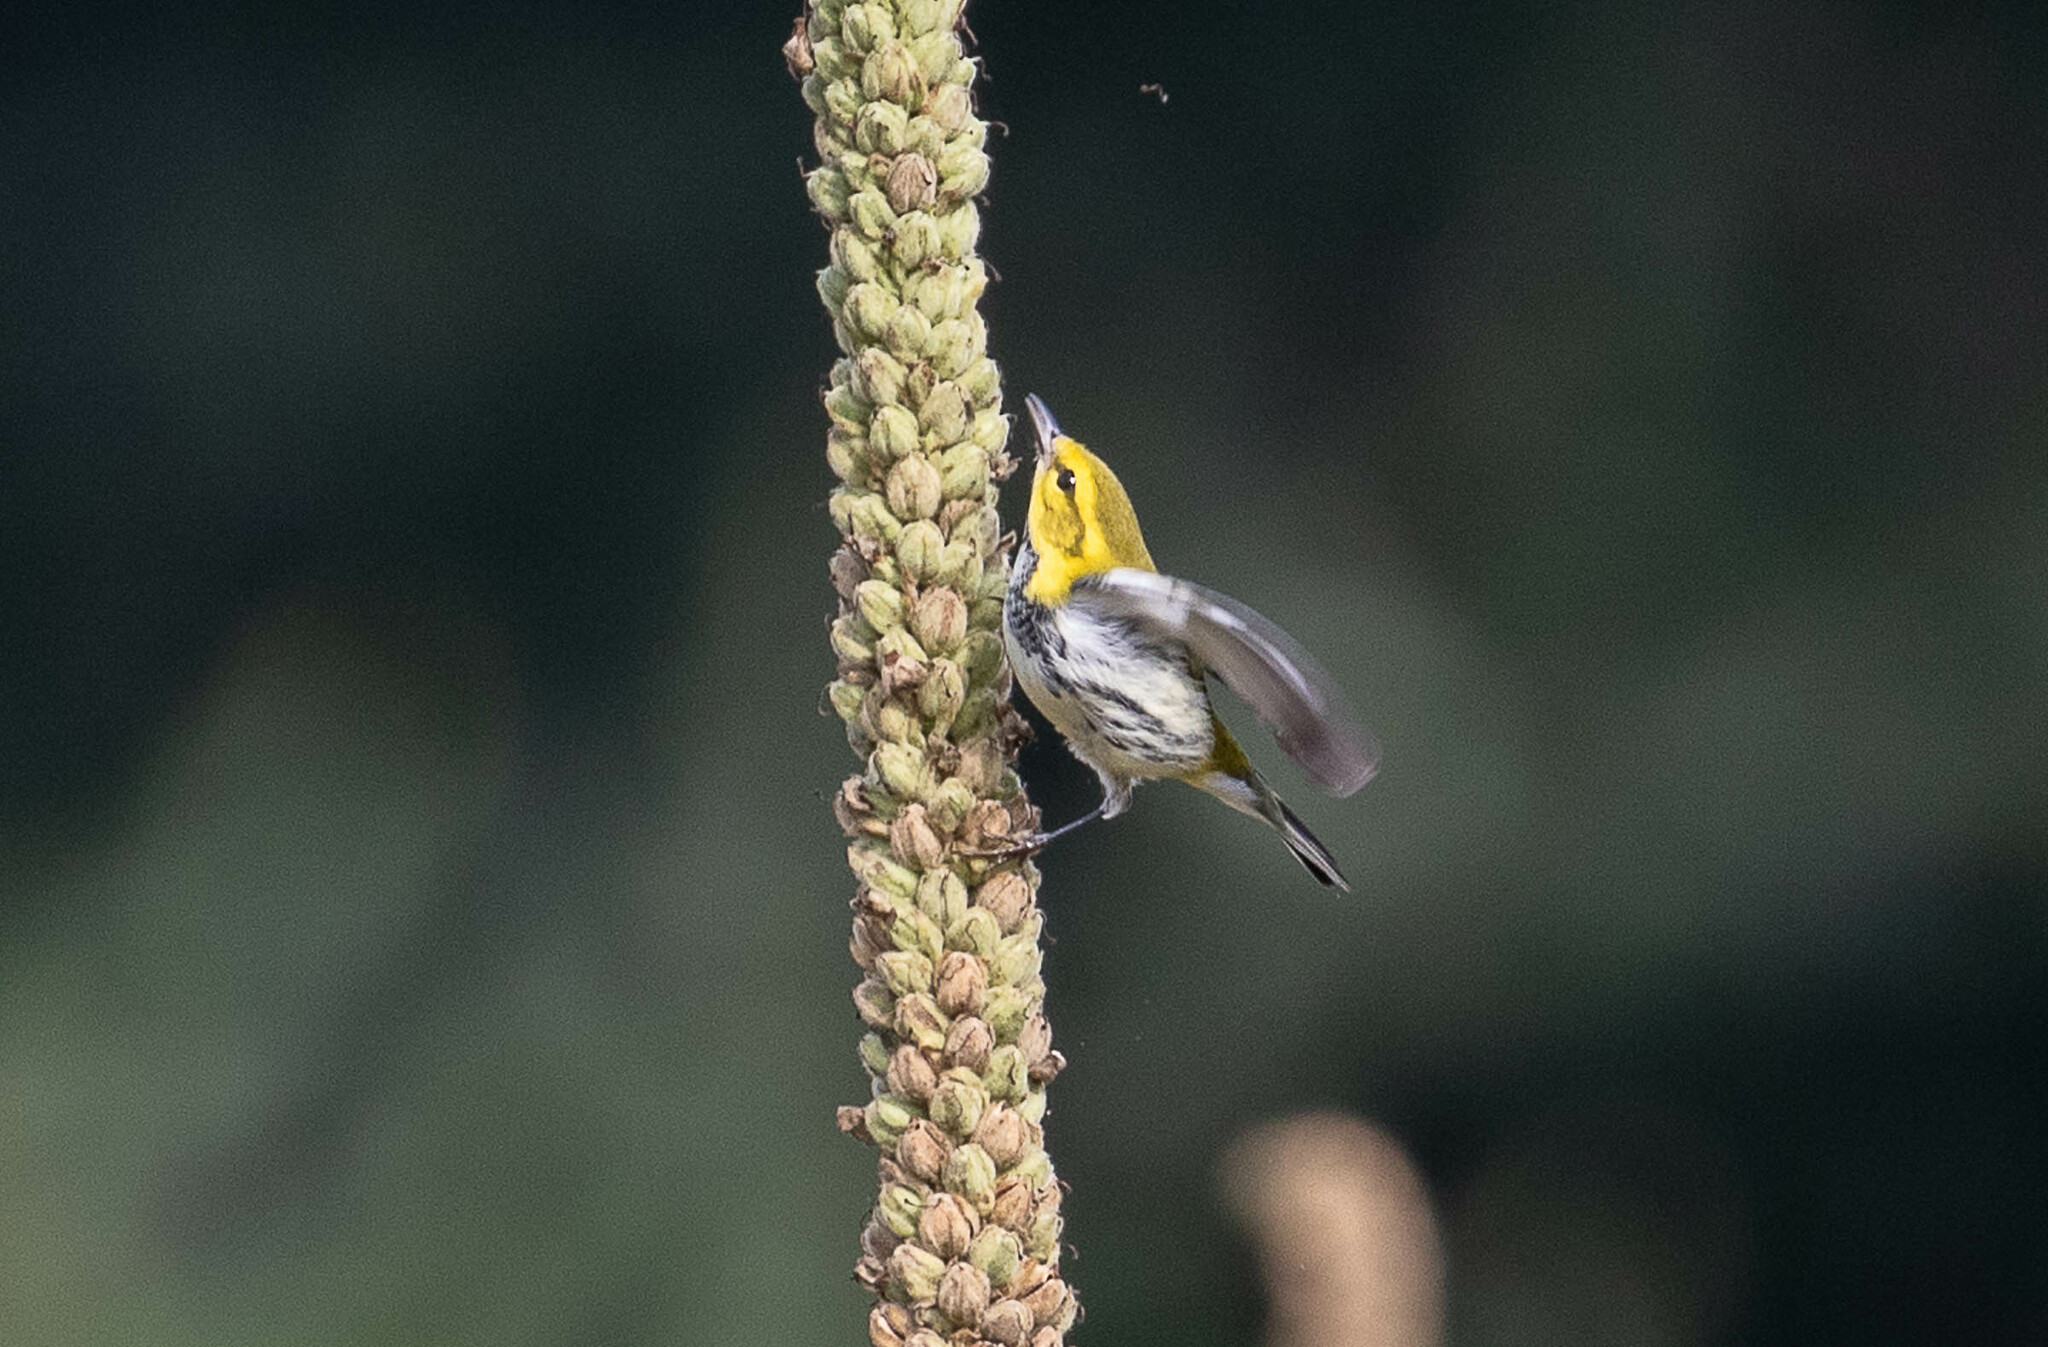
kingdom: Animalia
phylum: Chordata
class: Aves
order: Passeriformes
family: Parulidae
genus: Setophaga
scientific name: Setophaga virens
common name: Black-throated green warbler
